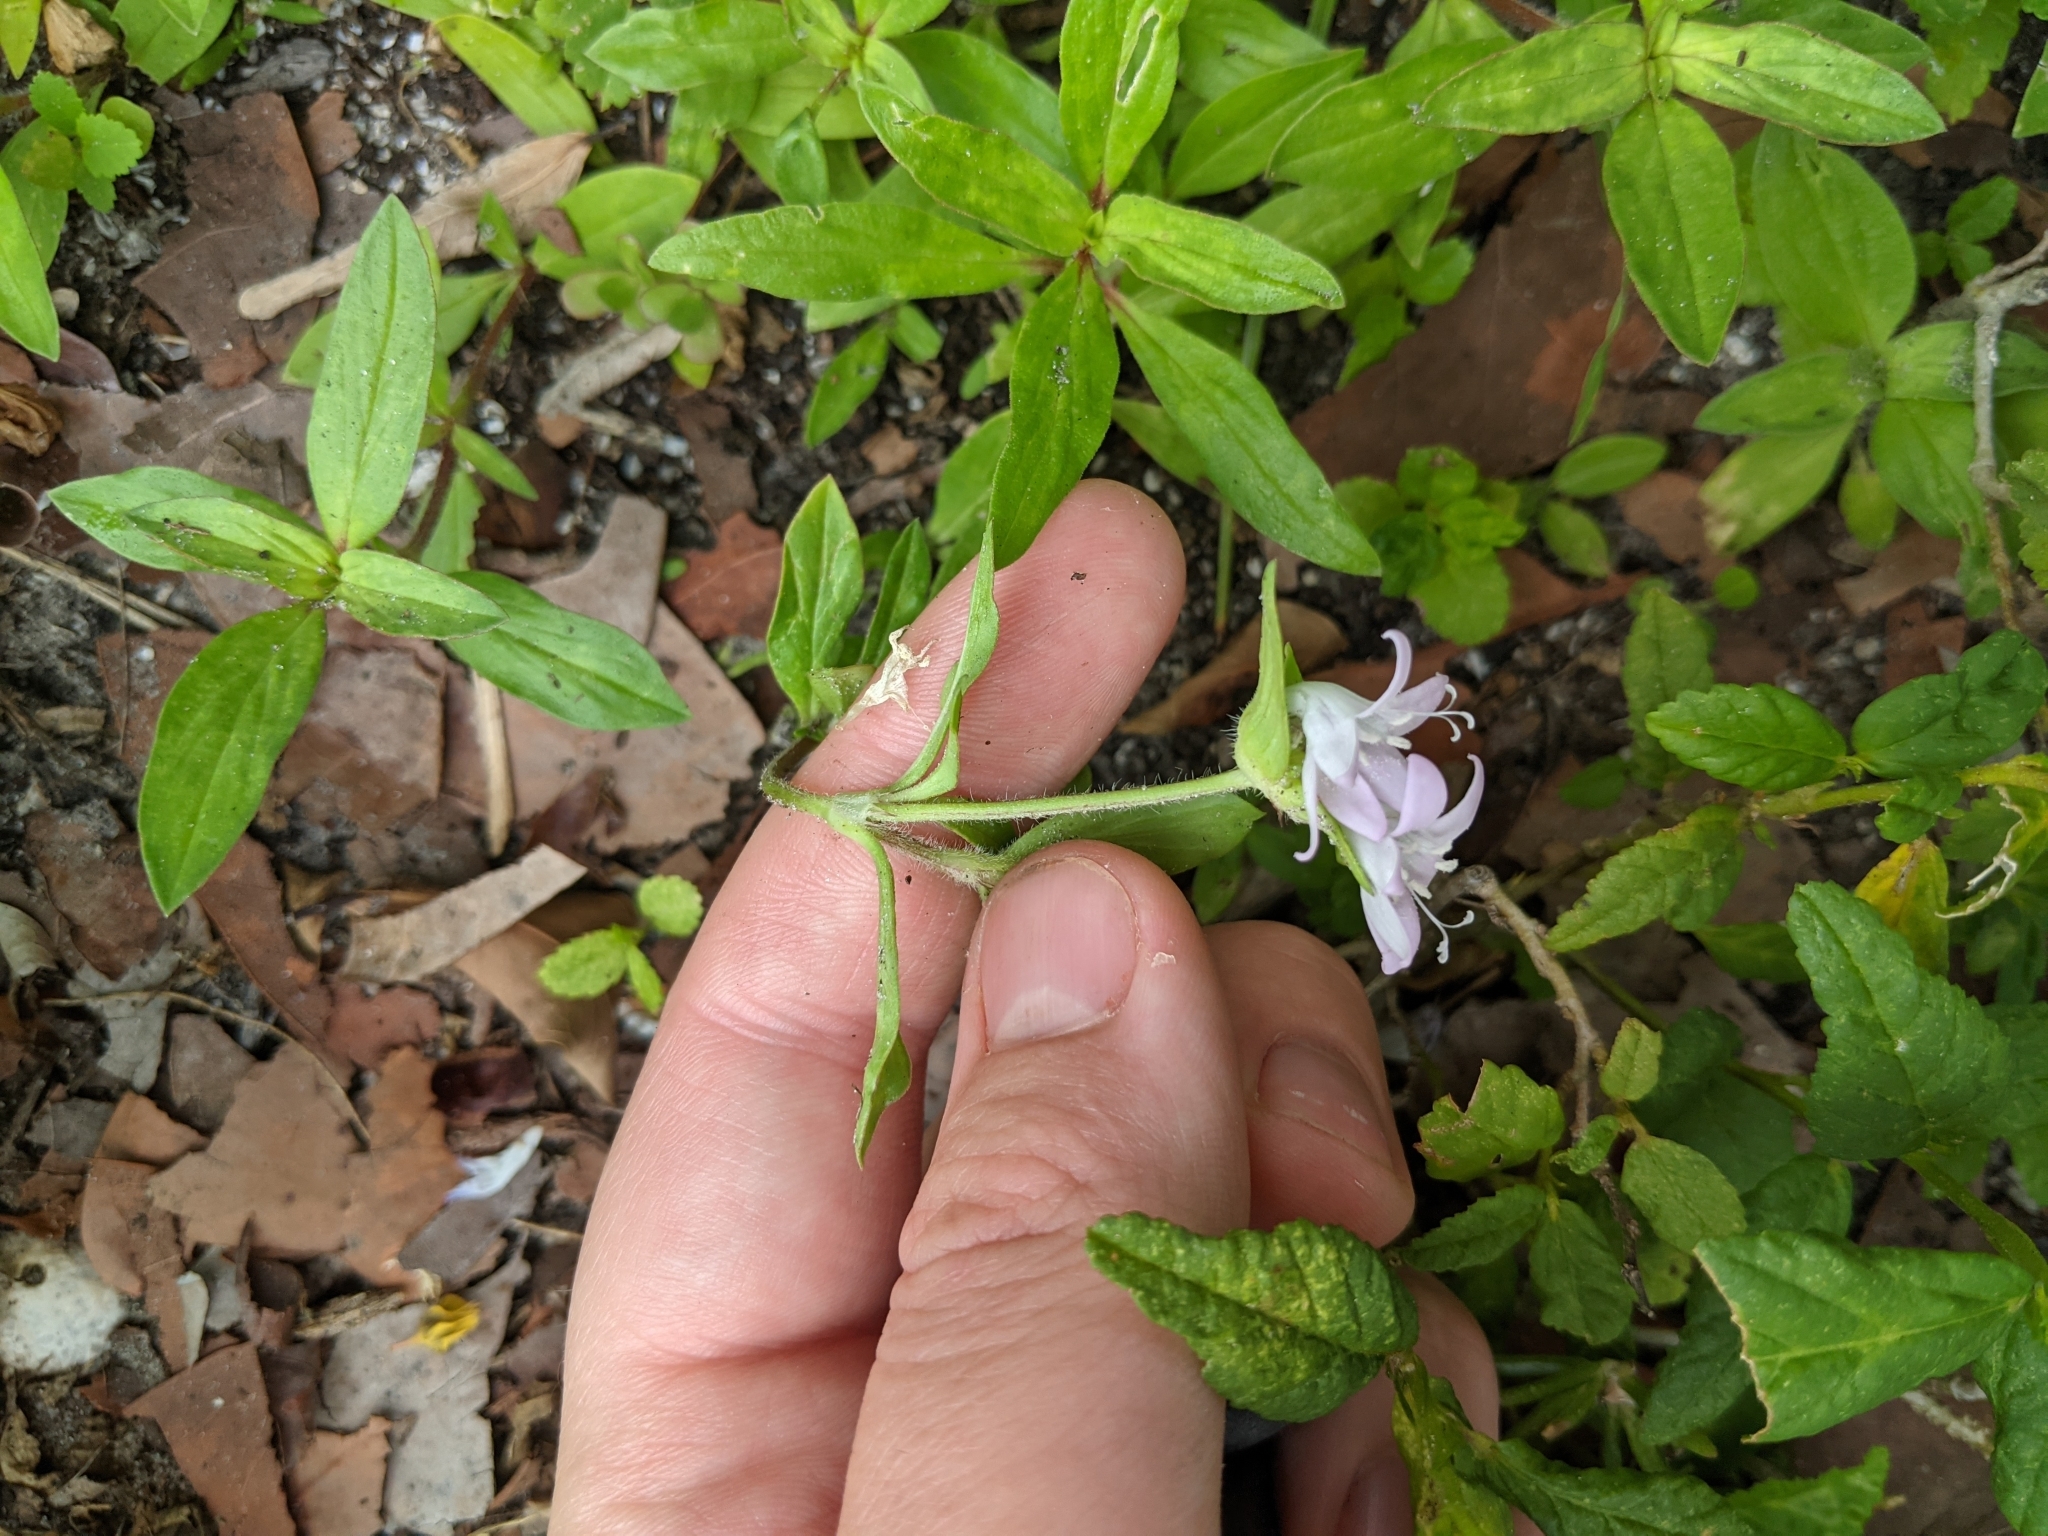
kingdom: Plantae
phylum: Tracheophyta
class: Magnoliopsida
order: Gentianales
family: Rubiaceae
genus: Richardia
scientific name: Richardia grandiflora
